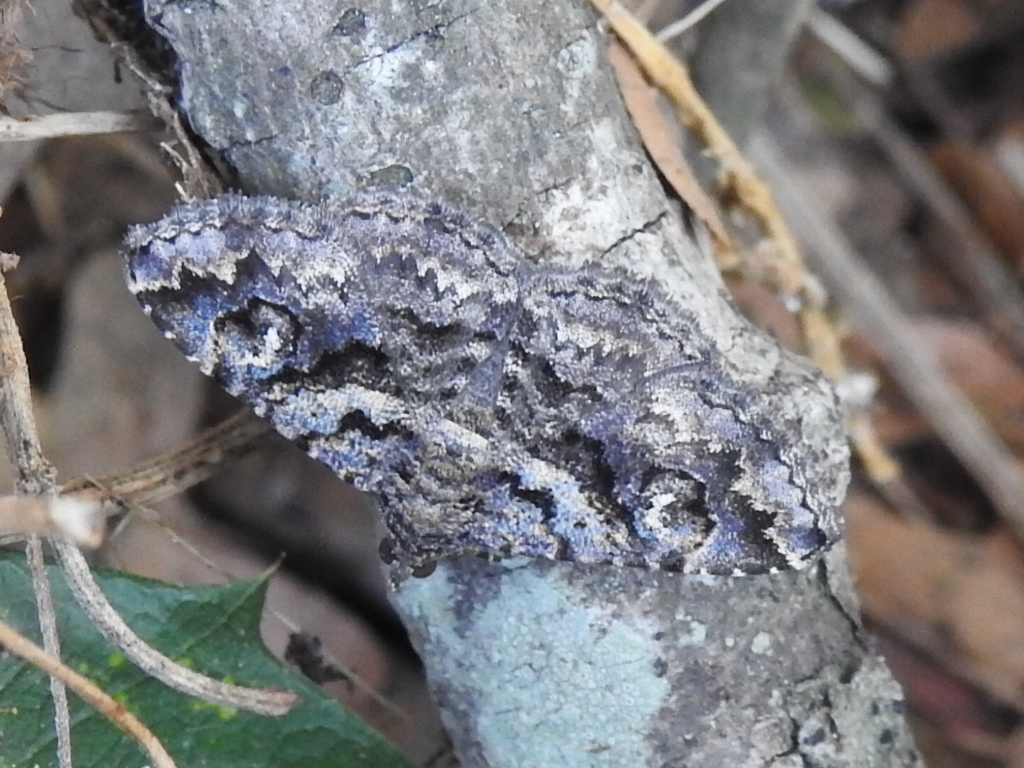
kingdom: Animalia
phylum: Arthropoda
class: Insecta
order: Lepidoptera
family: Erebidae
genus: Toxonprucha
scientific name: Toxonprucha excavata
